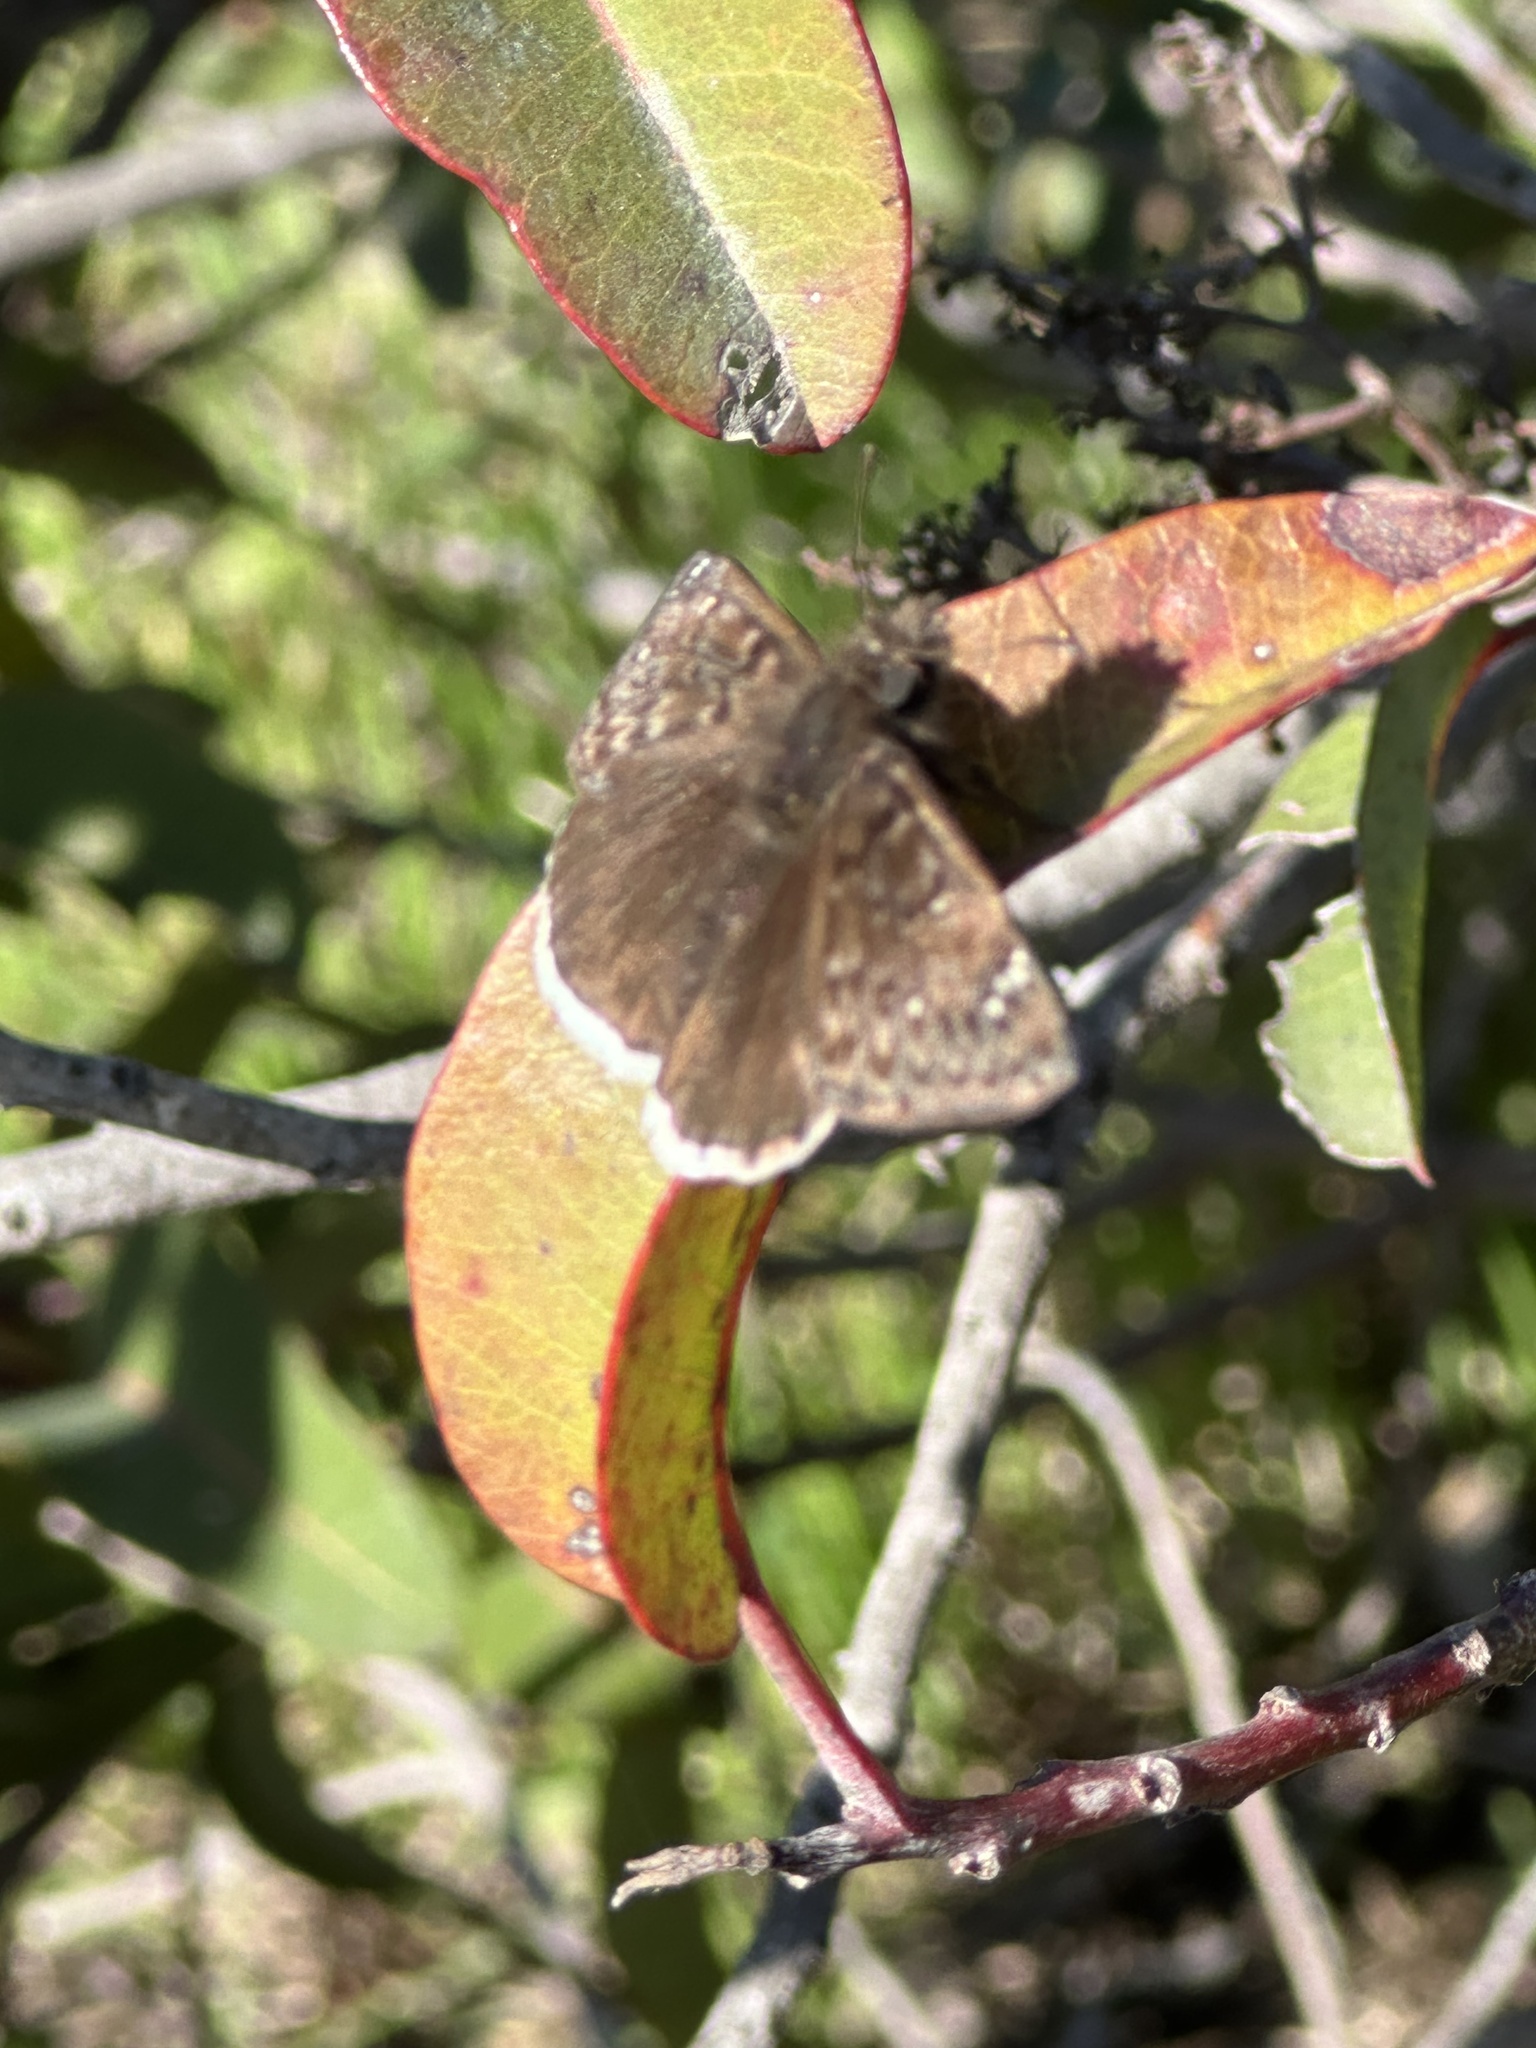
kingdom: Animalia
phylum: Arthropoda
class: Insecta
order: Lepidoptera
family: Hesperiidae
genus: Erynnis
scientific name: Erynnis tristis
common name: Mournful duskywing
